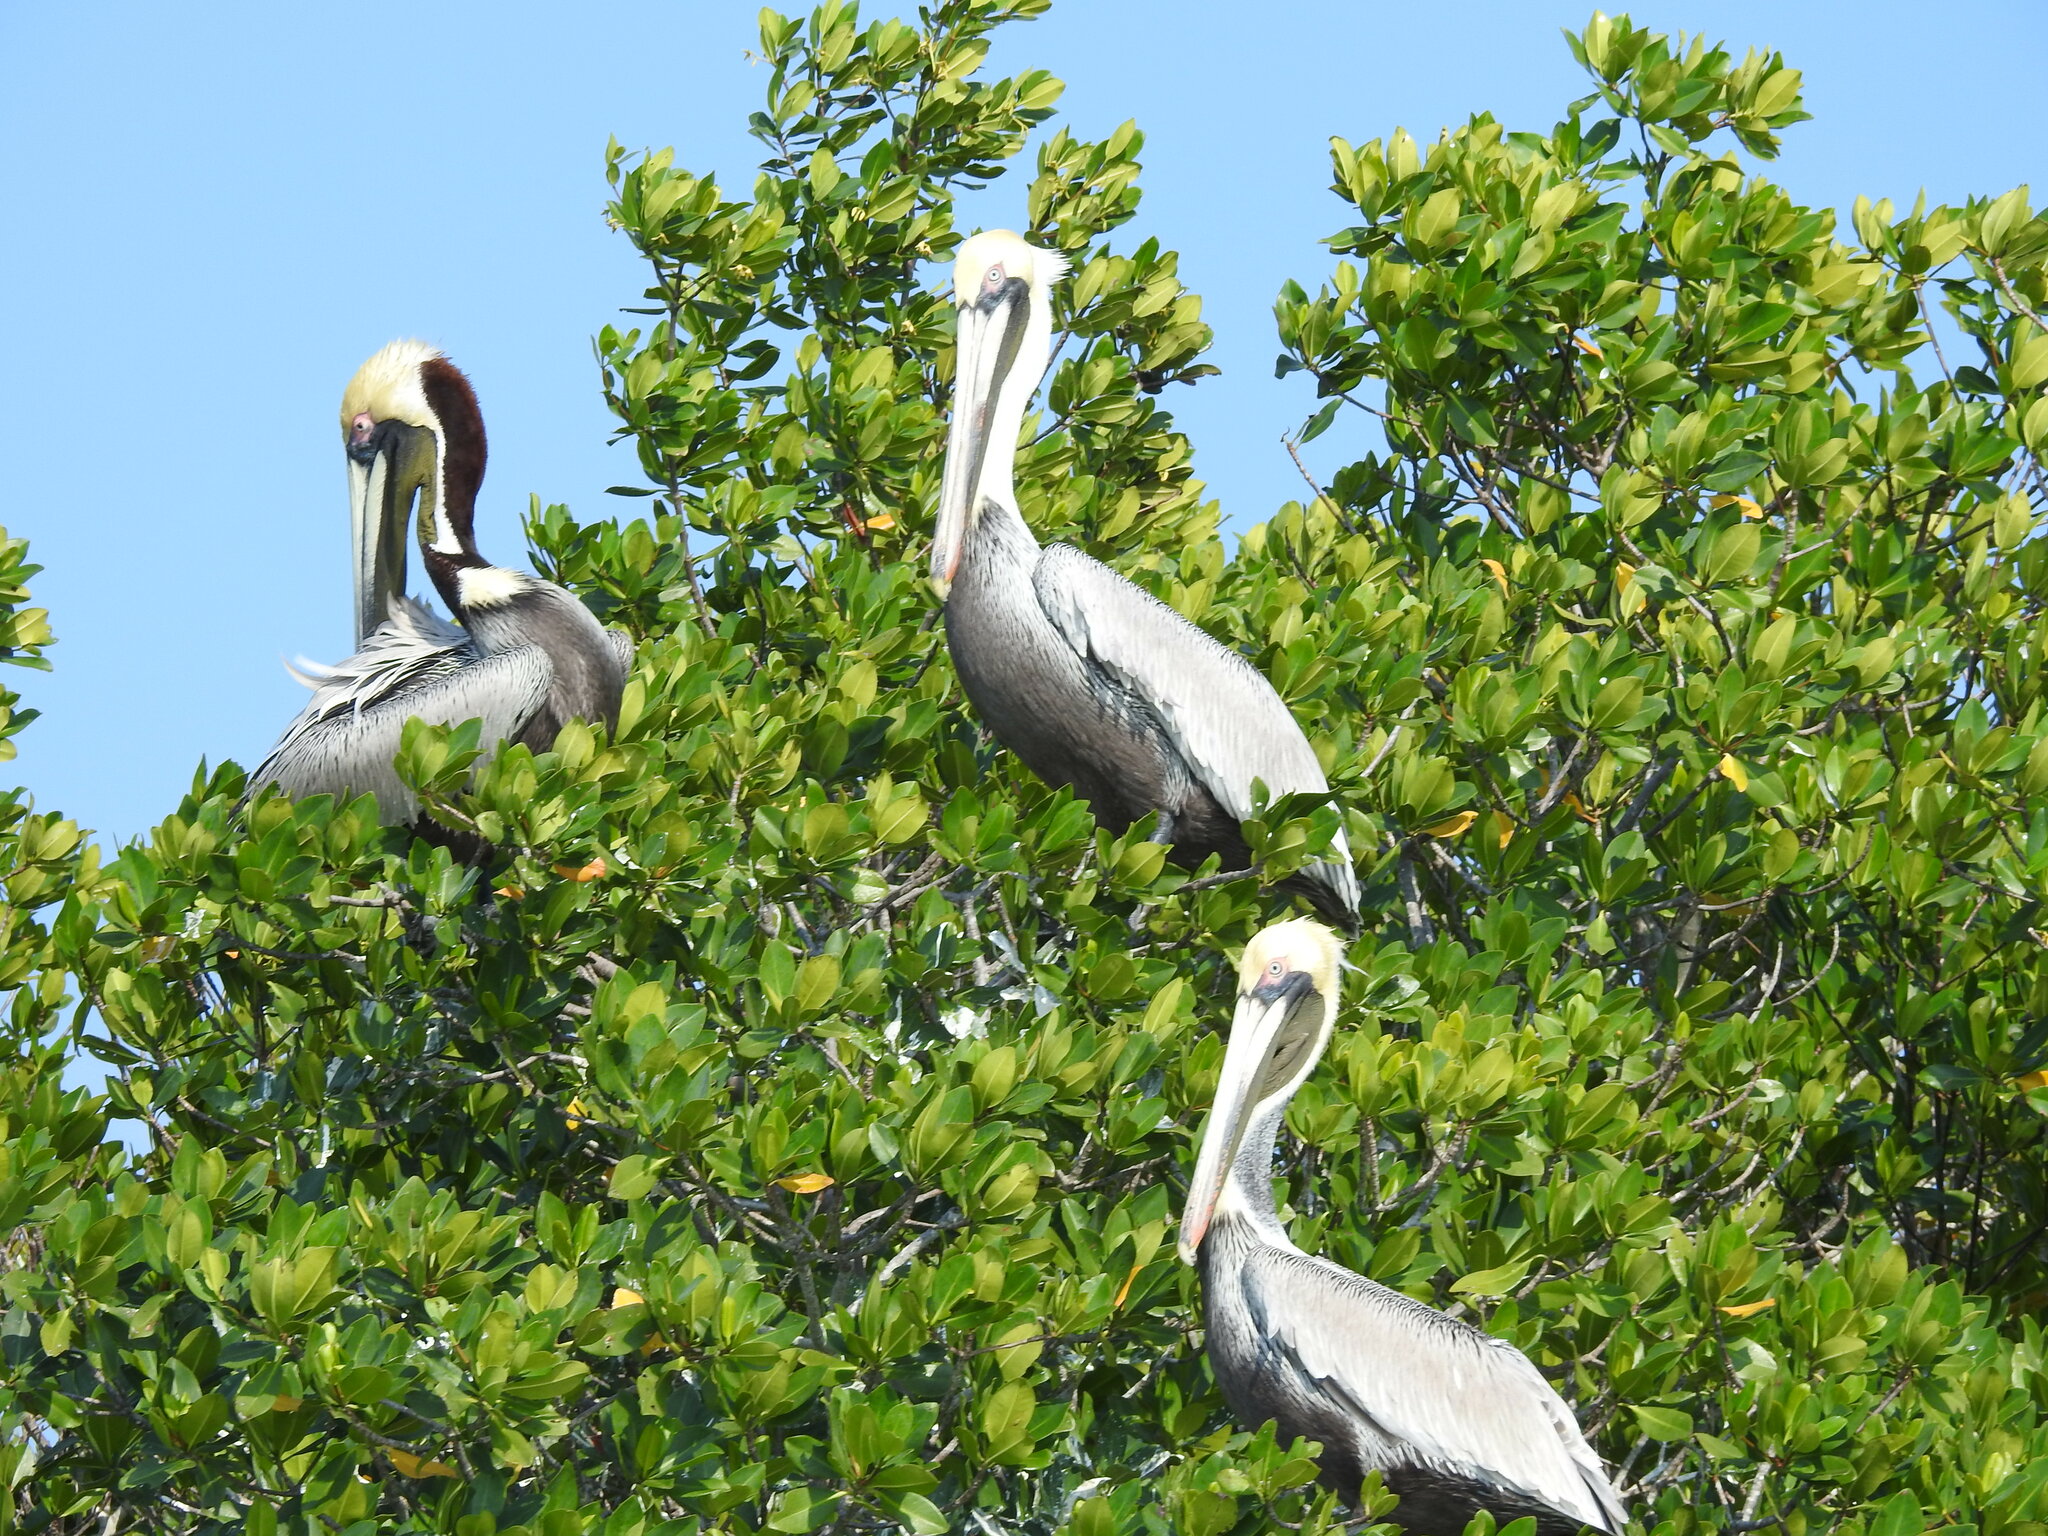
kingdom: Animalia
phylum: Chordata
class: Aves
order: Pelecaniformes
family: Pelecanidae
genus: Pelecanus
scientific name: Pelecanus occidentalis
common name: Brown pelican
